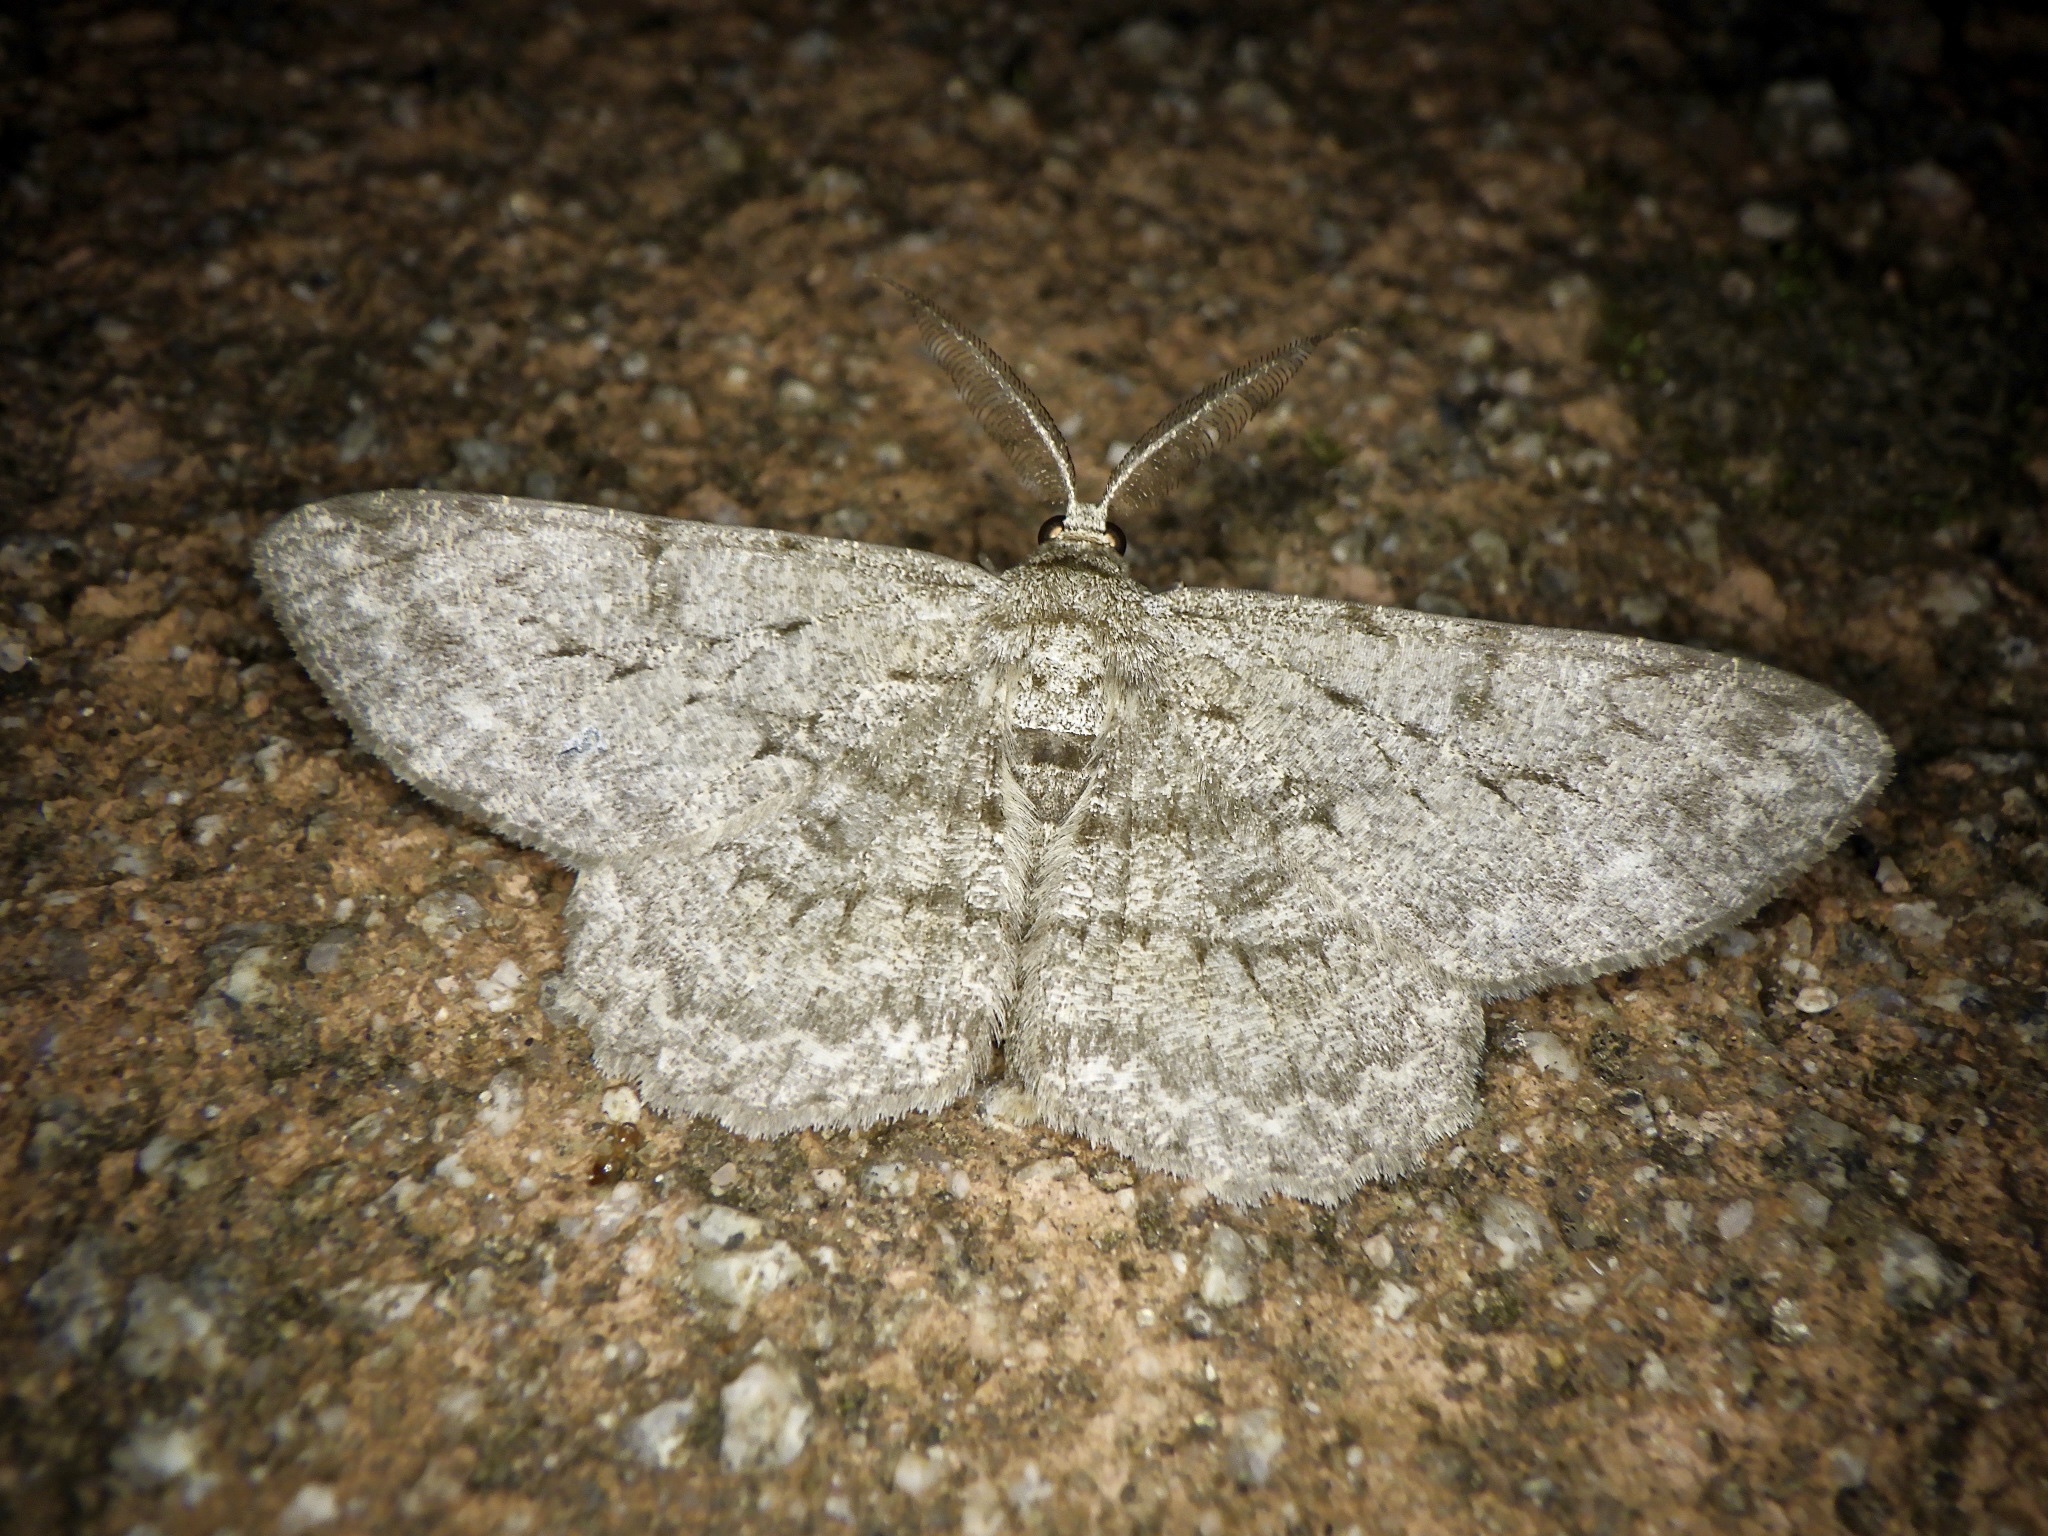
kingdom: Animalia
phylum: Arthropoda
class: Insecta
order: Lepidoptera
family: Geometridae
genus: Hypomecis
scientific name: Hypomecis punctinalis
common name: Pale oak beauty
